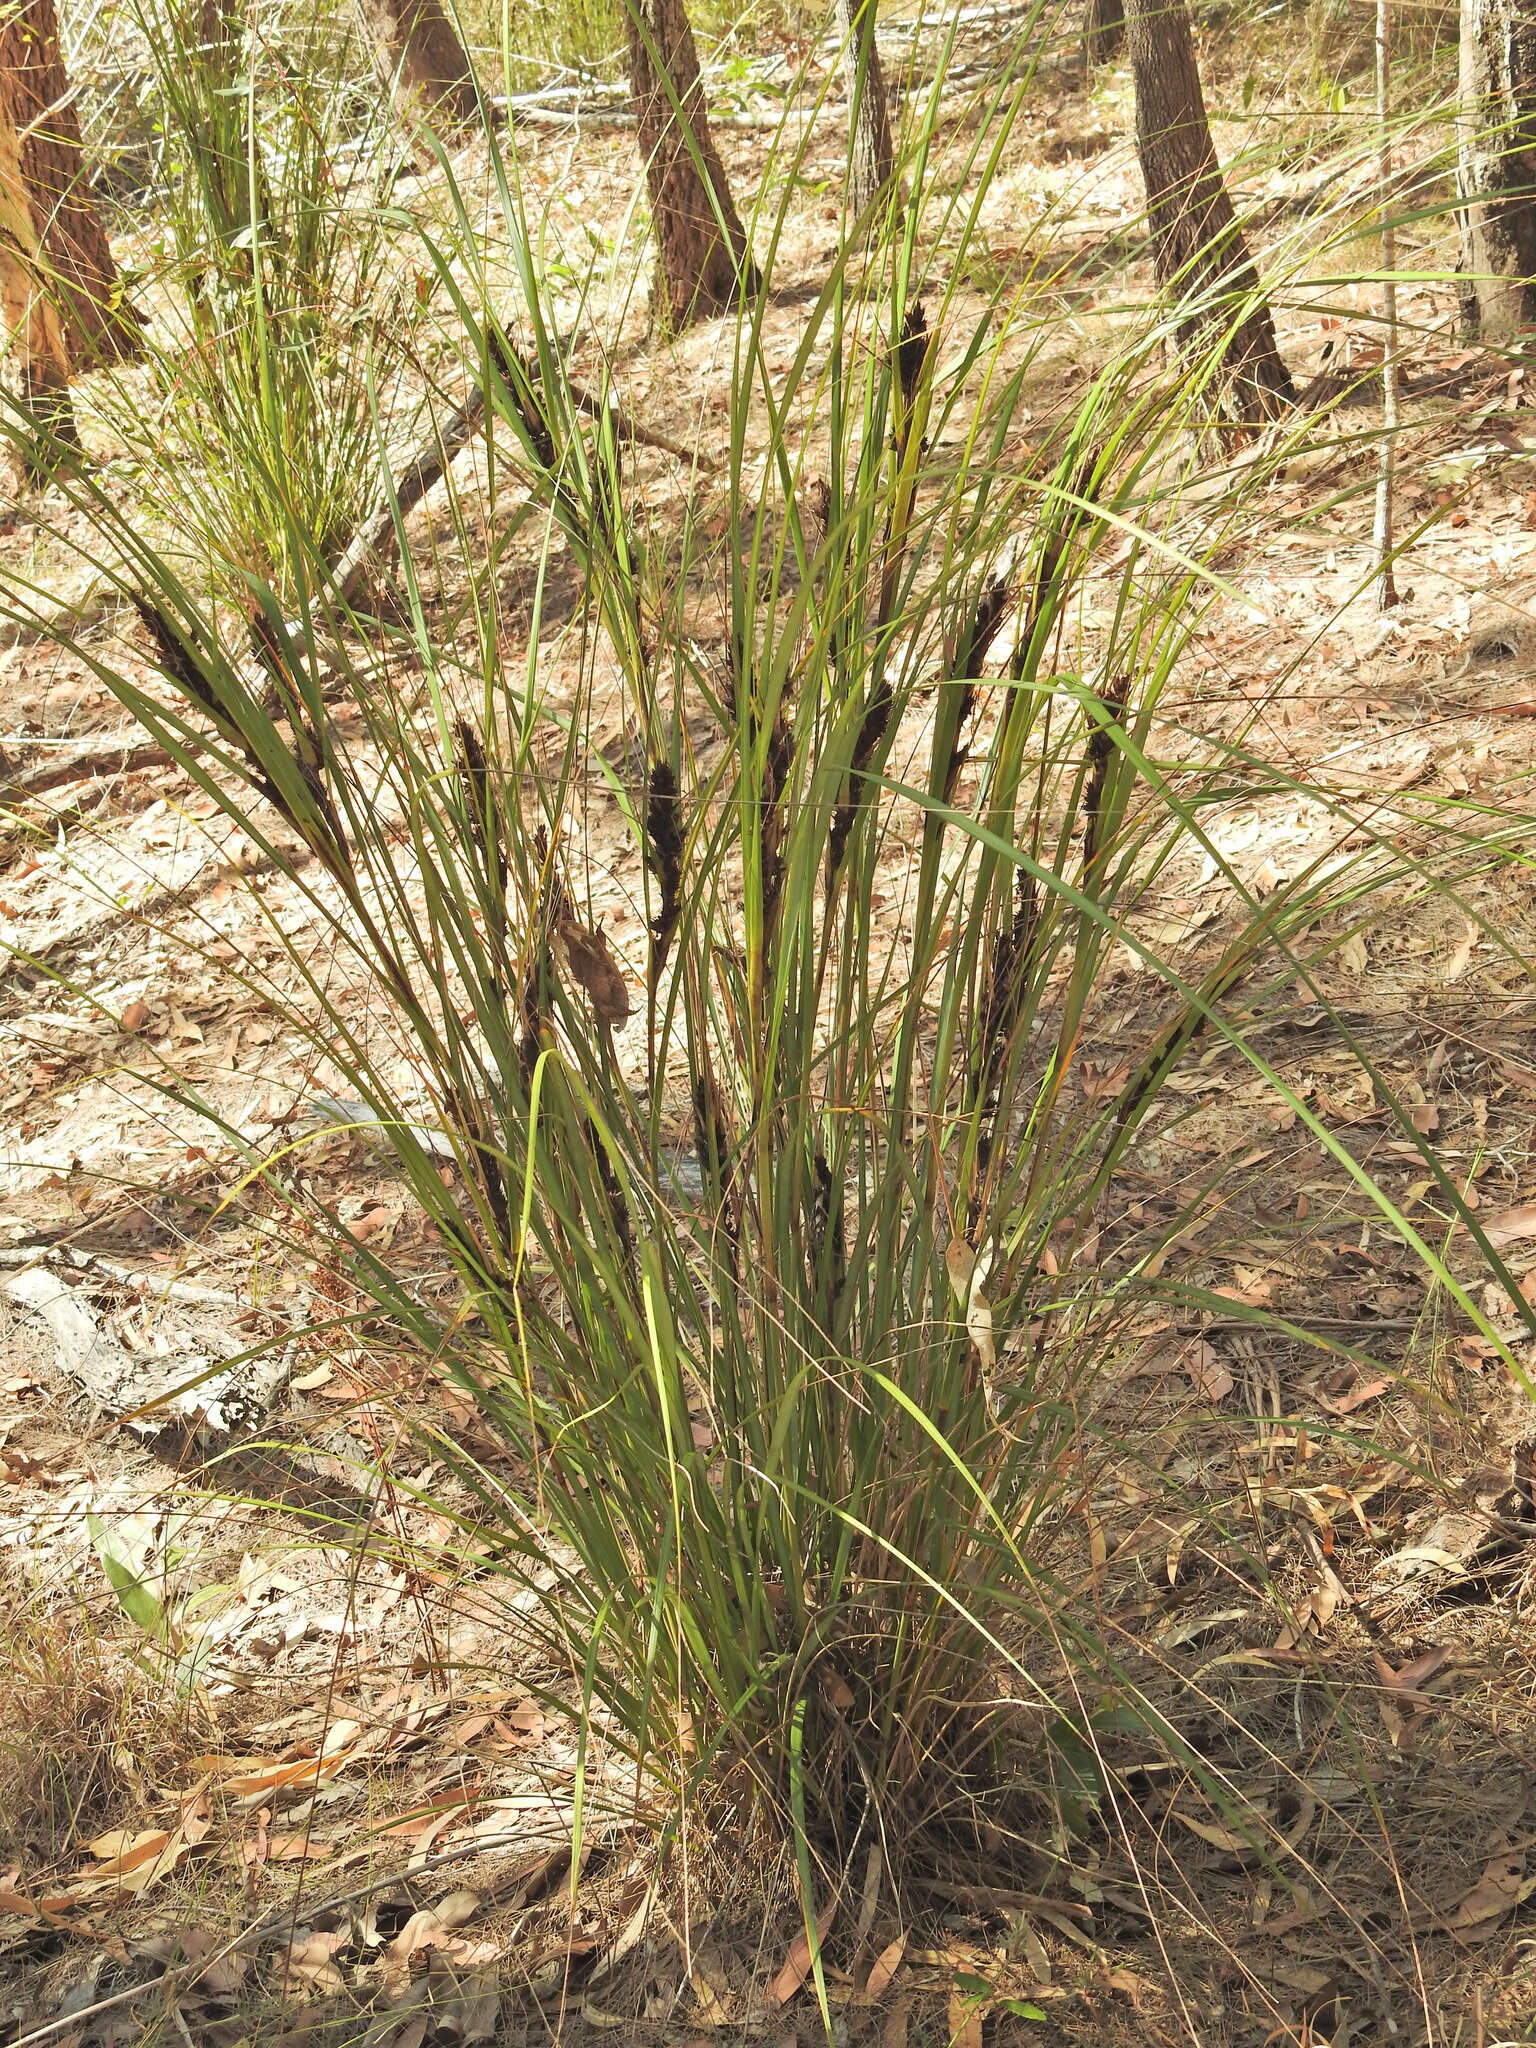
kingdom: Plantae
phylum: Tracheophyta
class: Liliopsida
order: Poales
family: Cyperaceae
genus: Gahnia
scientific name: Gahnia aspera
